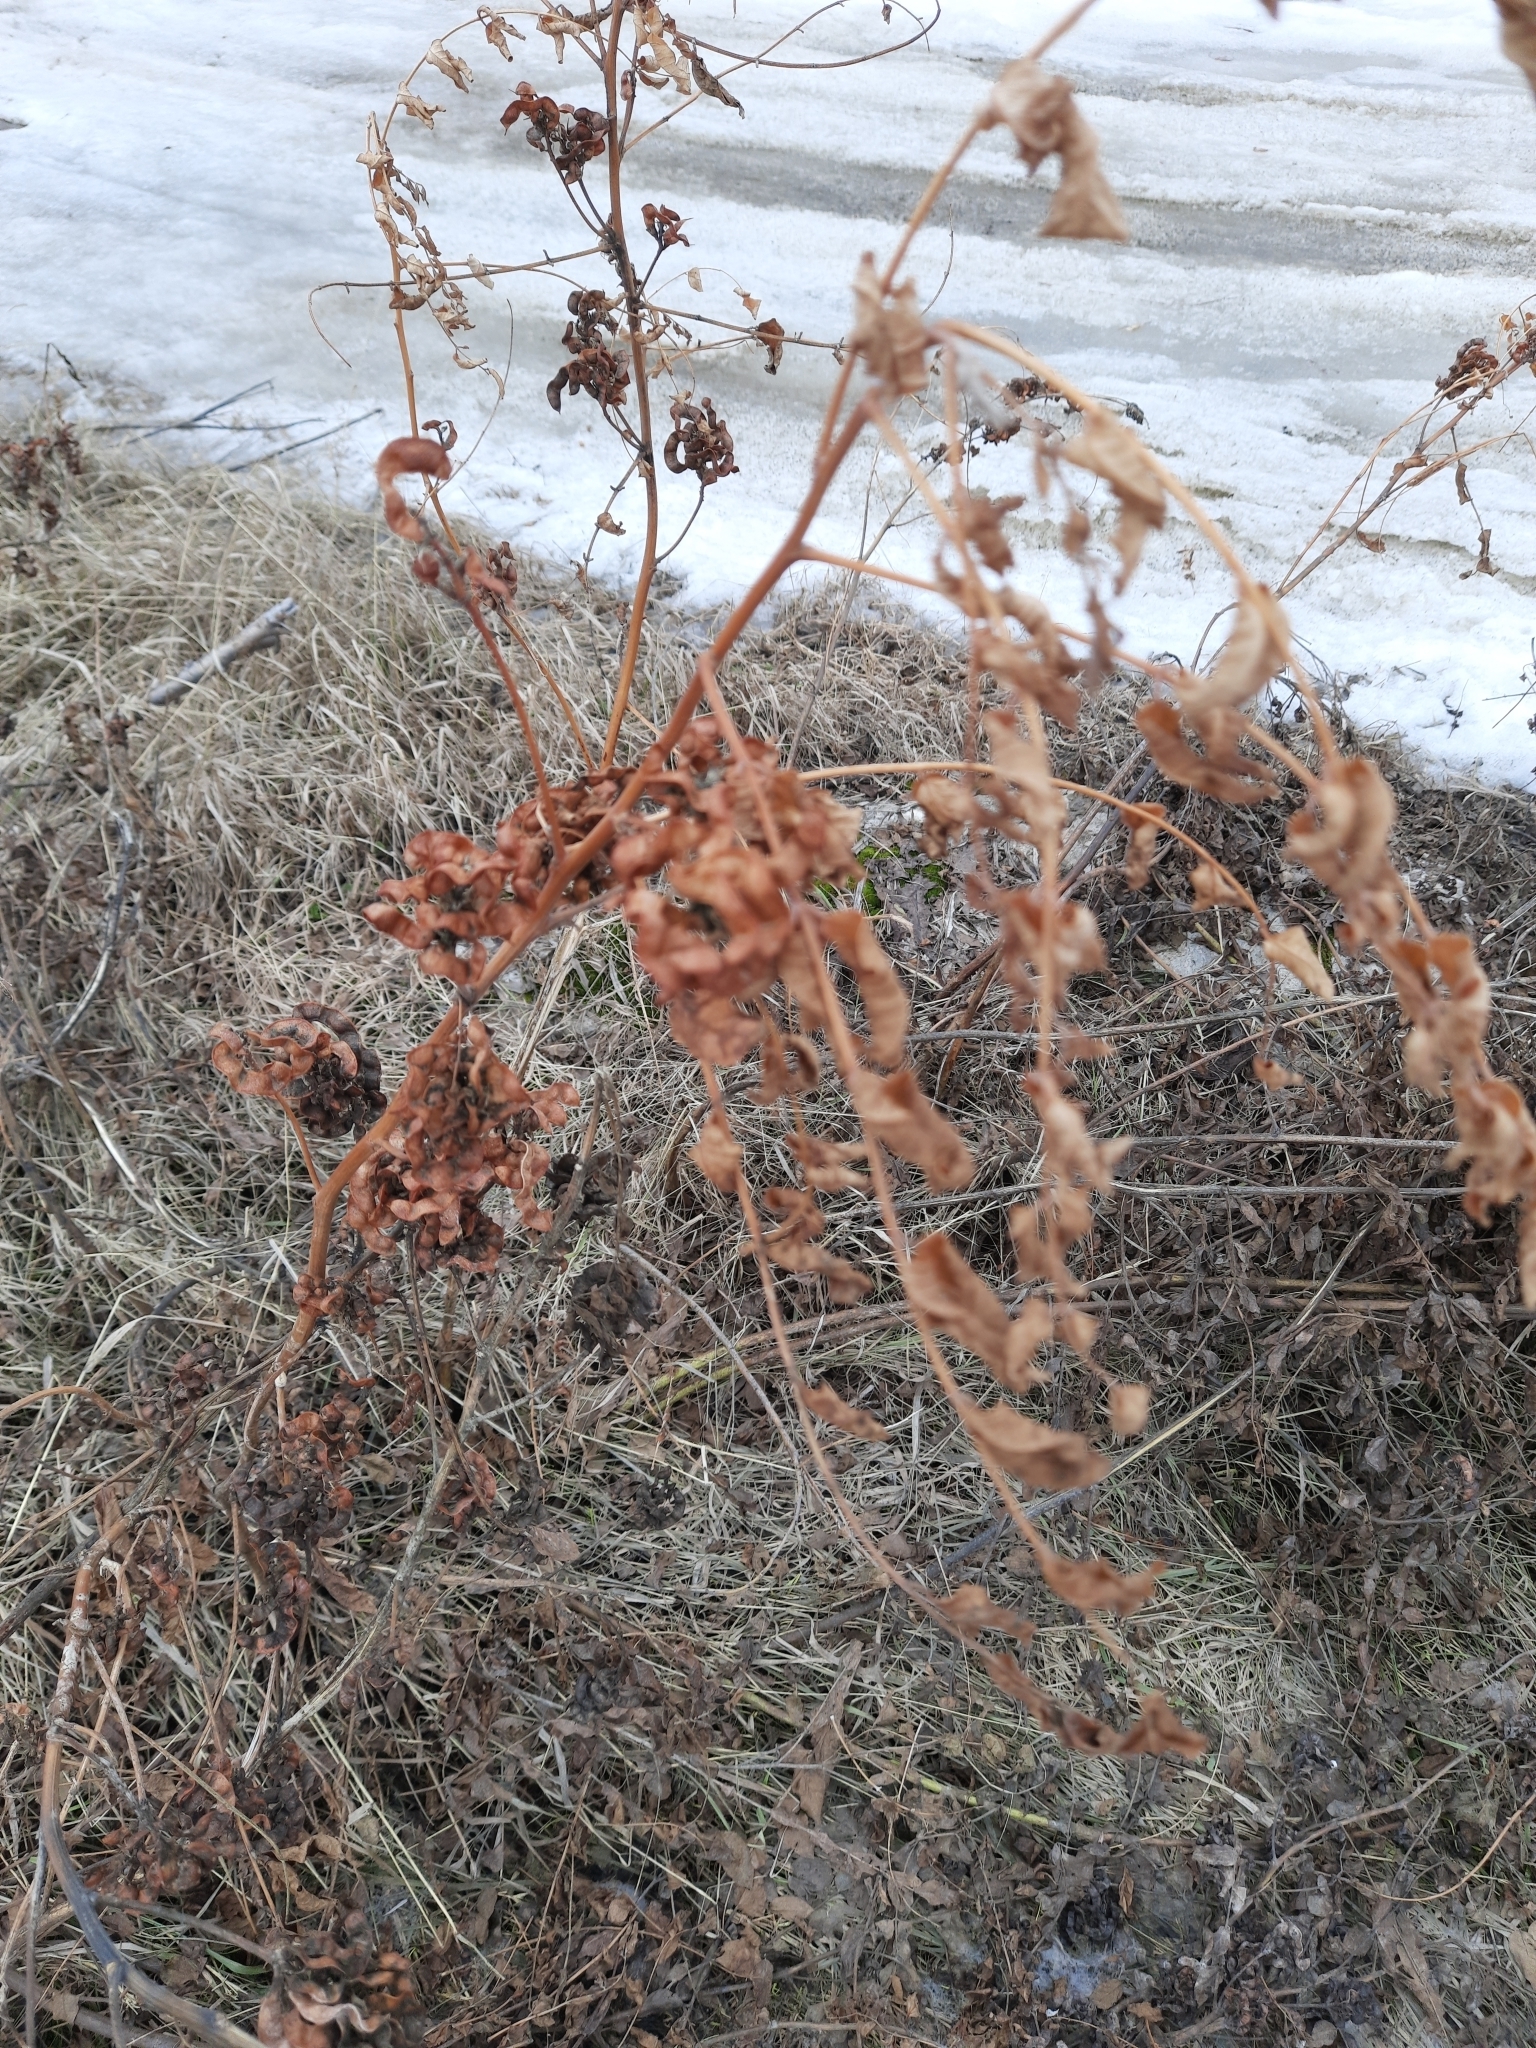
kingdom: Plantae
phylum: Tracheophyta
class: Magnoliopsida
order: Fabales
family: Fabaceae
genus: Glycyrrhiza
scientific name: Glycyrrhiza uralensis
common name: Chinese licorice
